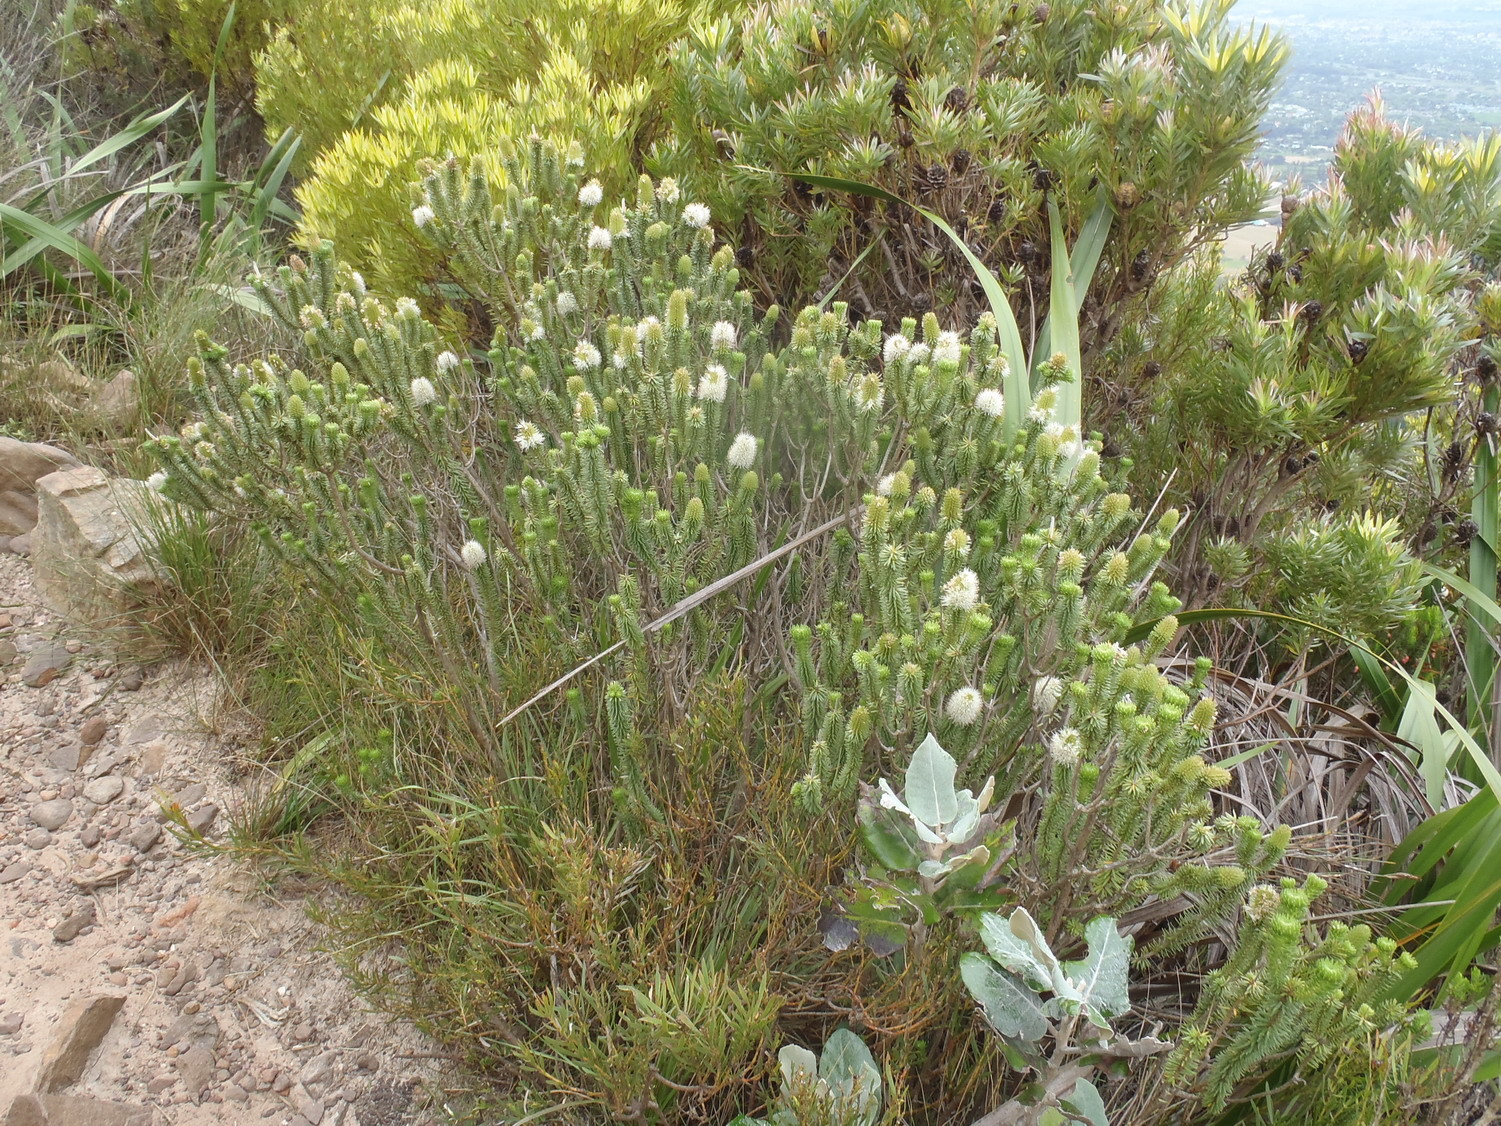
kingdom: Plantae
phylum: Tracheophyta
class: Magnoliopsida
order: Lamiales
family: Stilbaceae
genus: Stilbe
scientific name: Stilbe vestita
